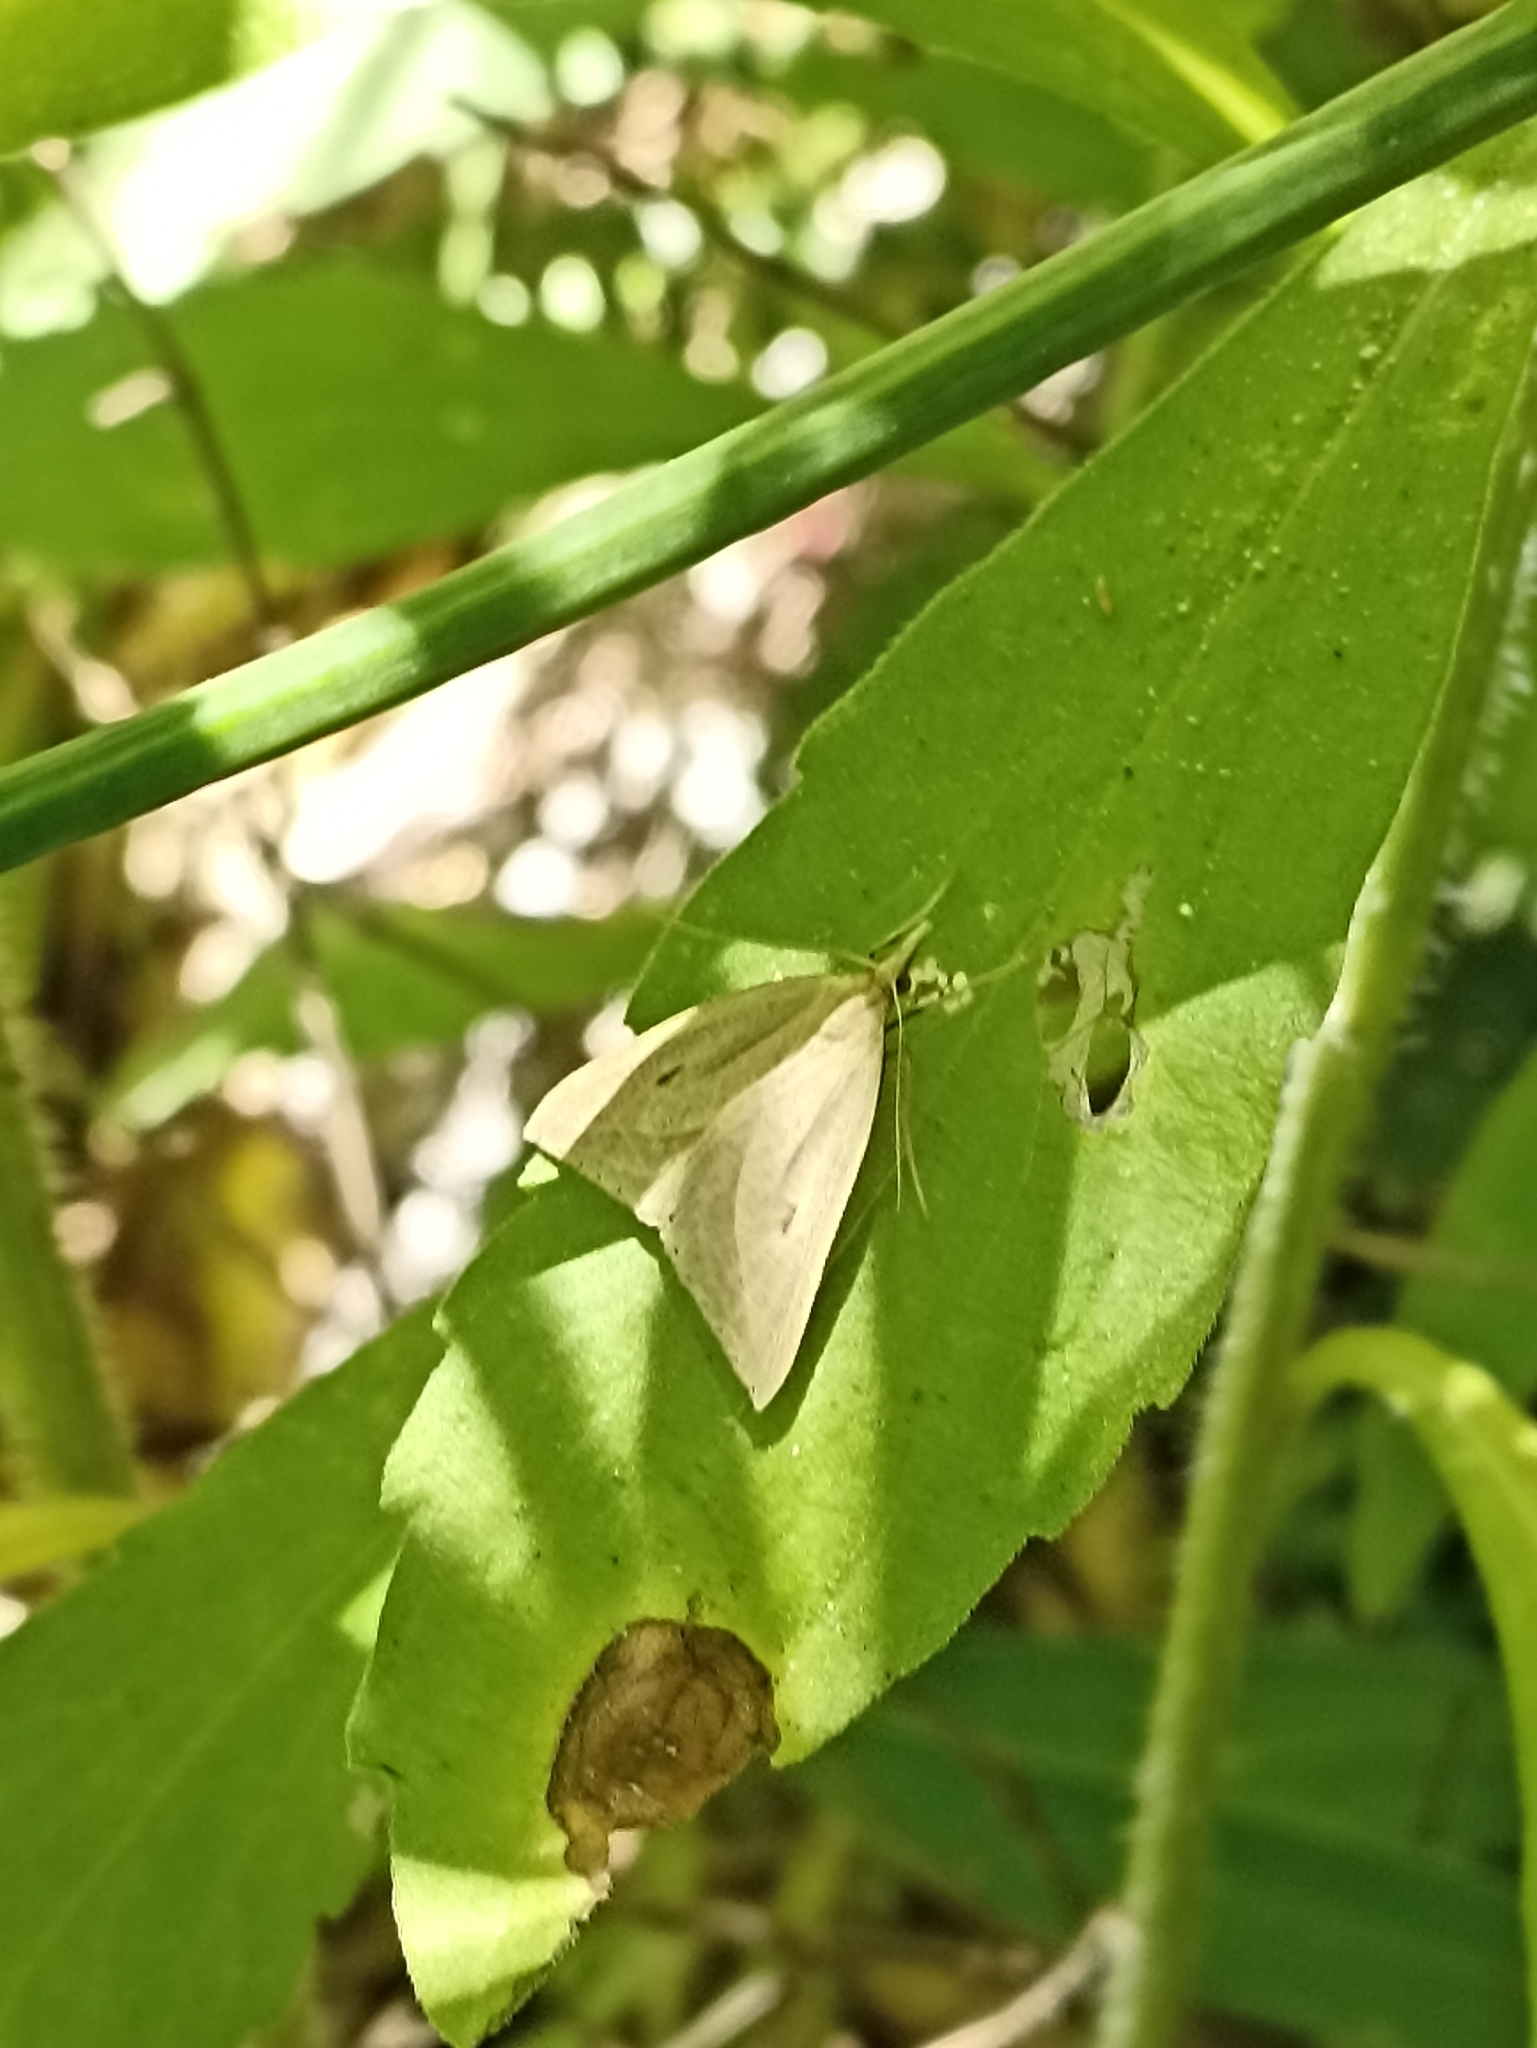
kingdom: Animalia
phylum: Arthropoda
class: Insecta
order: Lepidoptera
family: Geometridae
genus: Samana
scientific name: Samana falcatella
